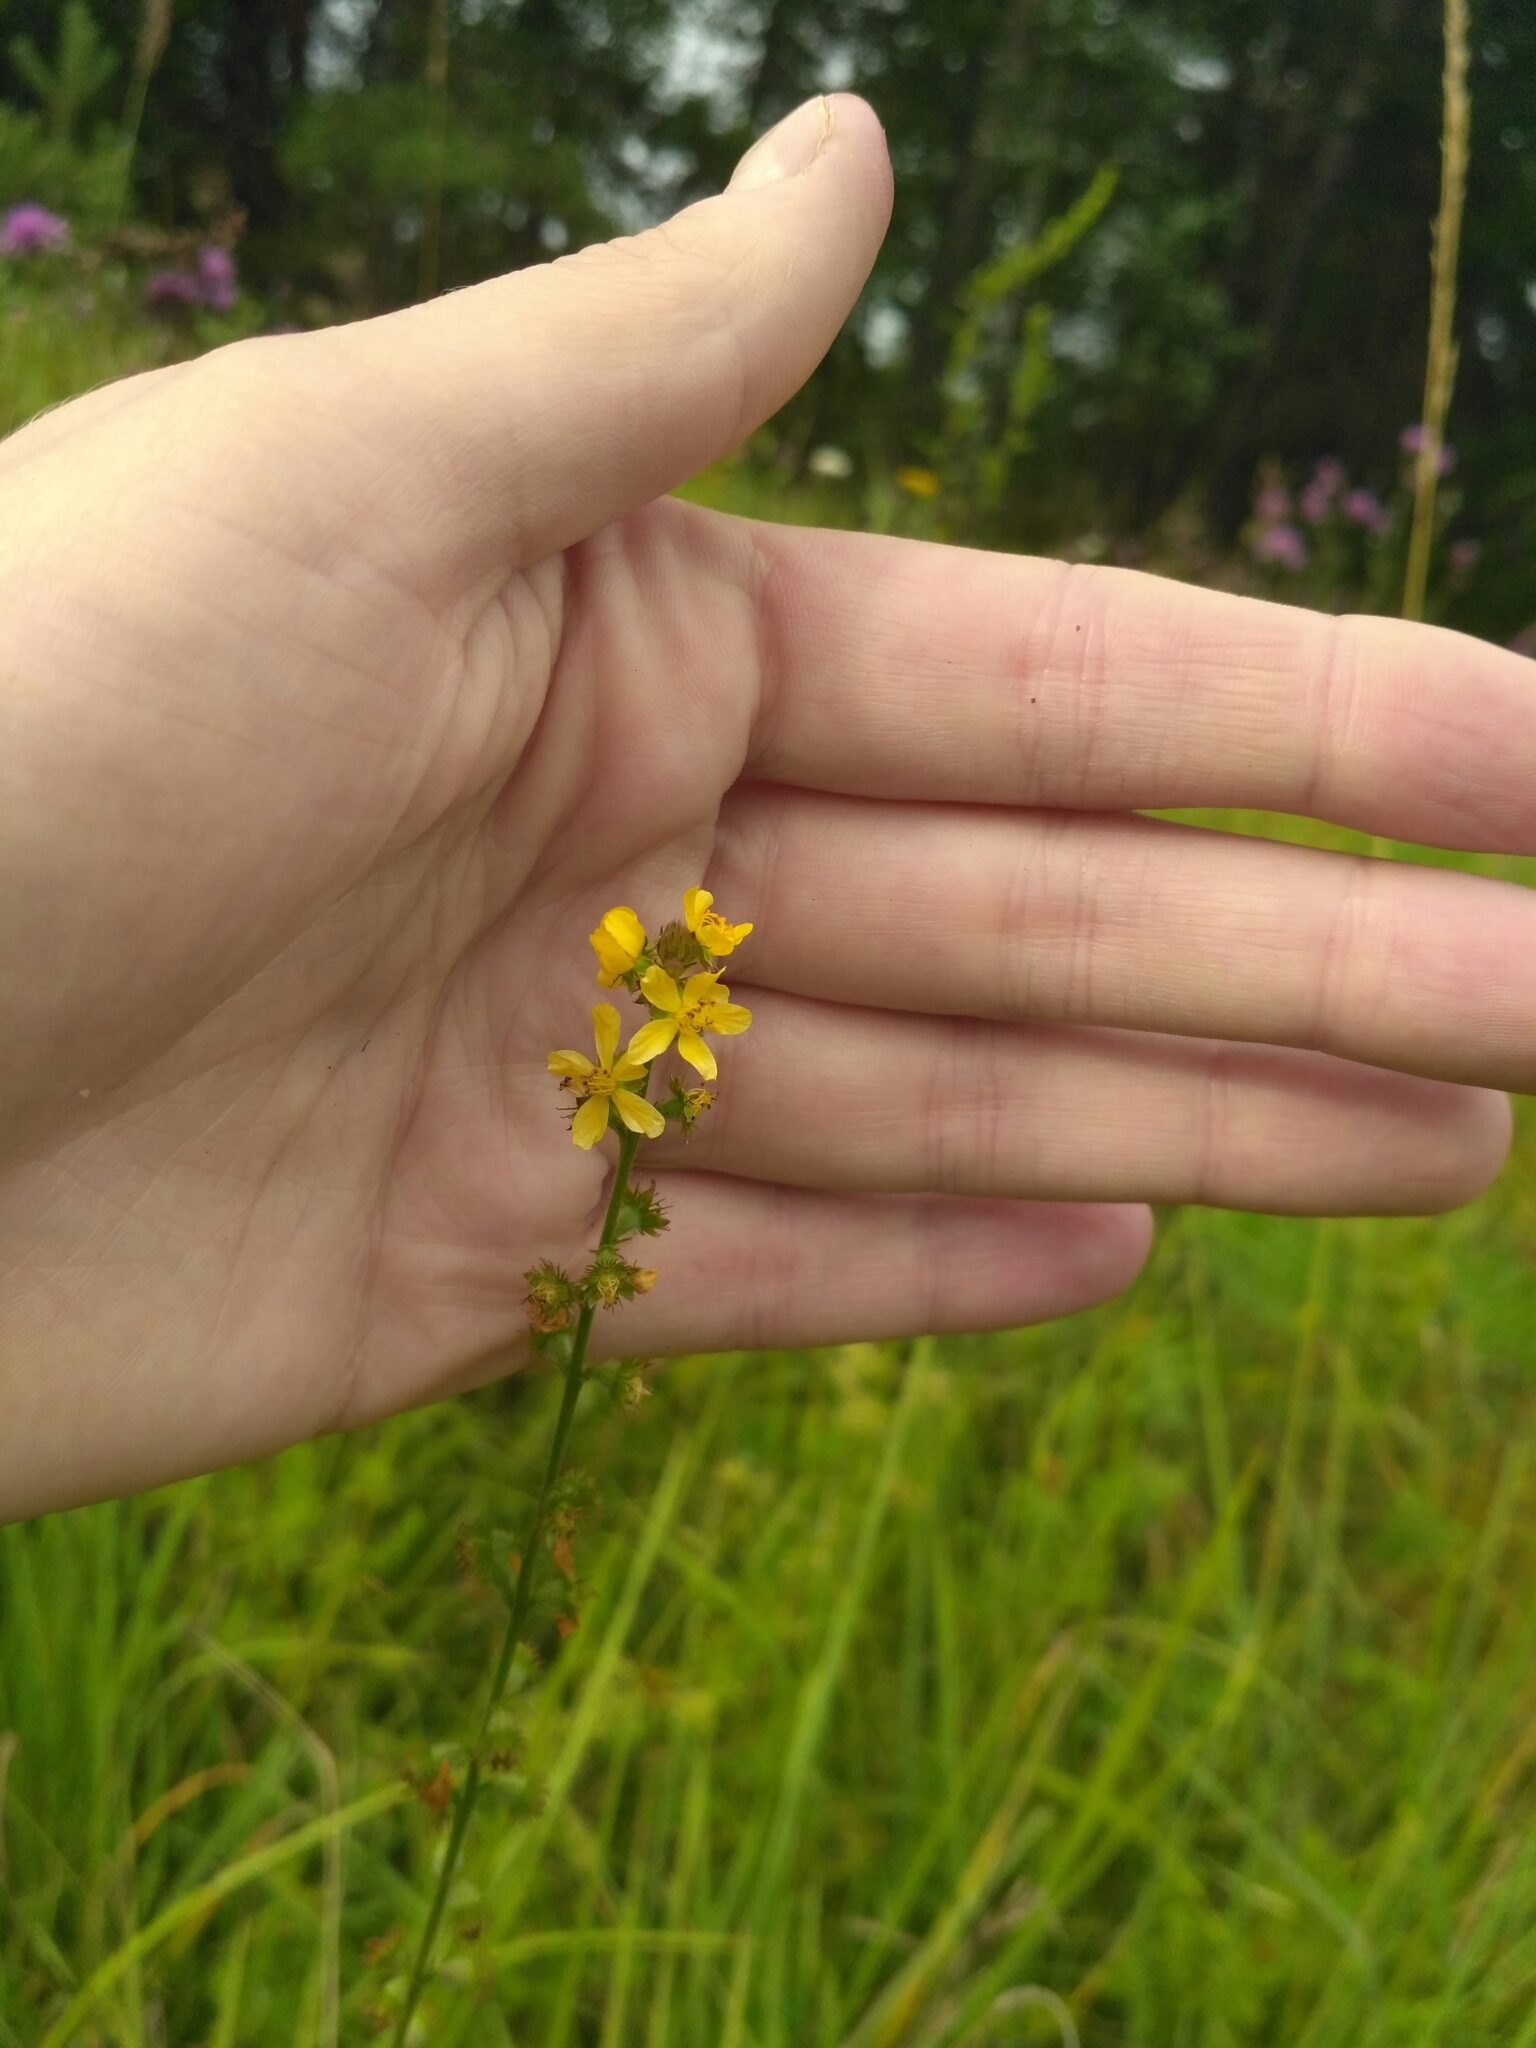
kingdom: Plantae
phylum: Tracheophyta
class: Magnoliopsida
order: Rosales
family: Rosaceae
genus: Agrimonia
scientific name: Agrimonia eupatoria
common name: Agrimony
